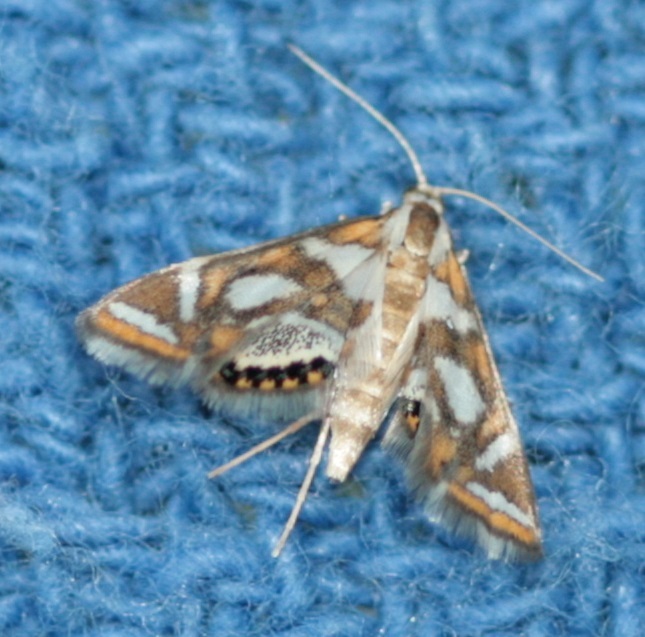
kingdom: Animalia
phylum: Arthropoda
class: Insecta
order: Lepidoptera
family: Crambidae
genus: Chrysendeton
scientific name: Chrysendeton medicinalis
